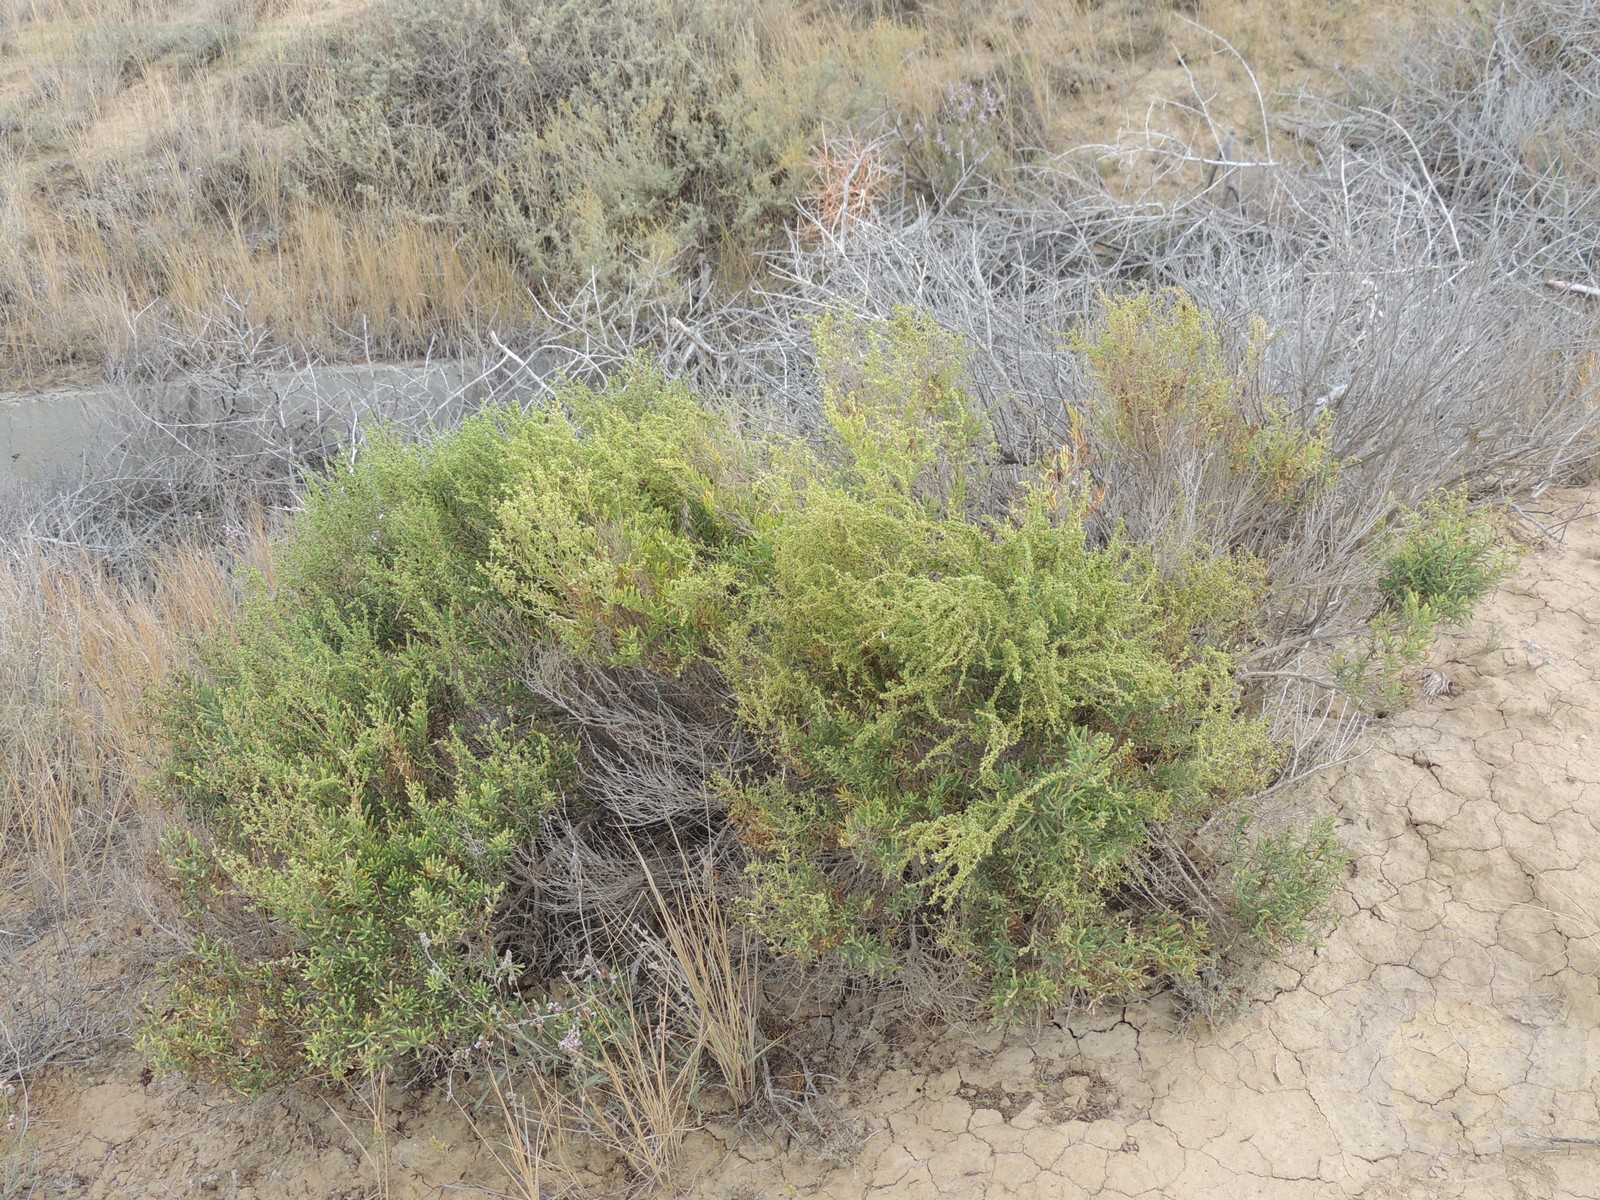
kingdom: Plantae
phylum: Tracheophyta
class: Magnoliopsida
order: Caryophyllales
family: Amaranthaceae
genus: Suaeda
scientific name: Suaeda physophora
